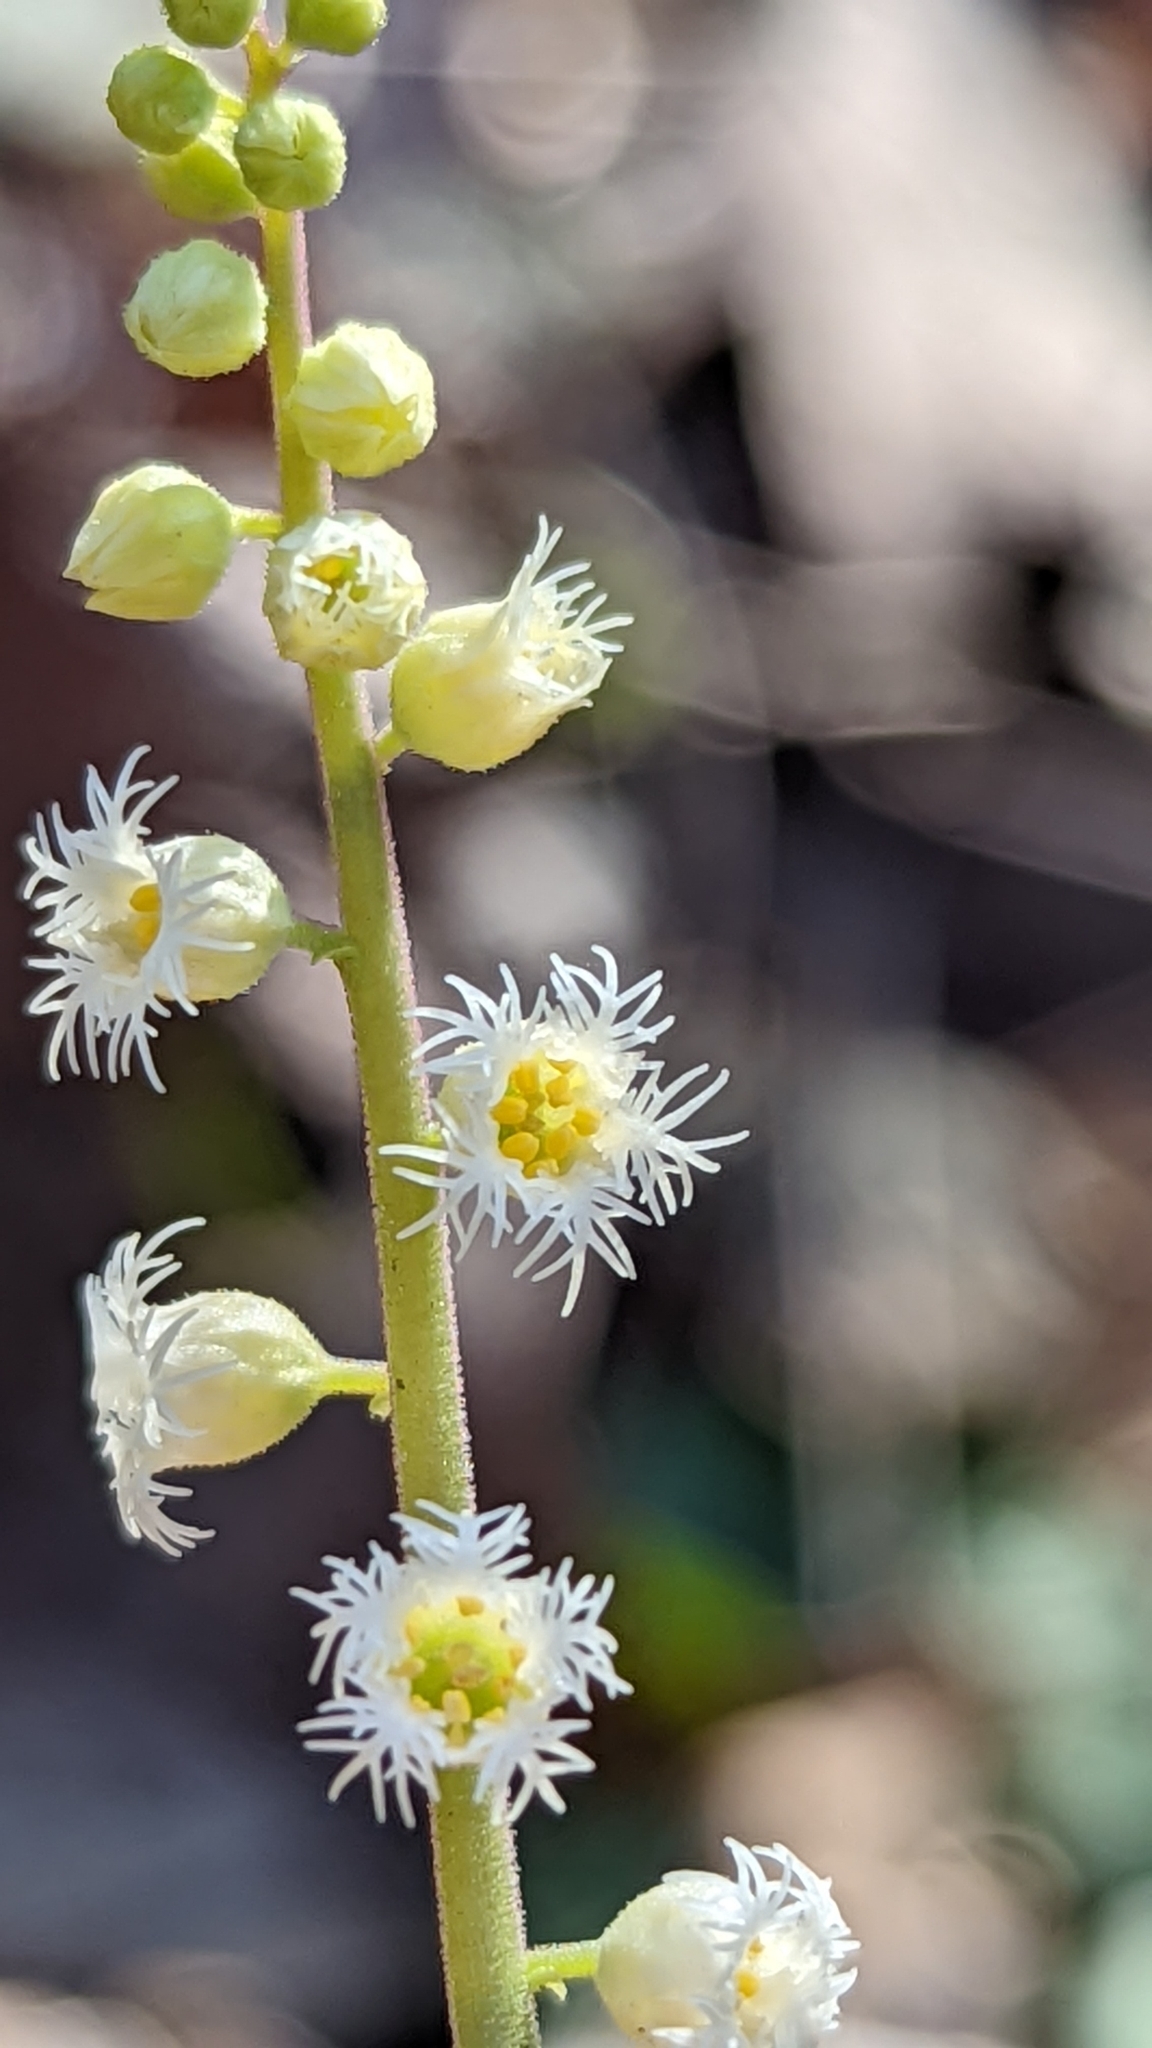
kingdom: Plantae
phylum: Tracheophyta
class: Magnoliopsida
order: Saxifragales
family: Saxifragaceae
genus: Mitella
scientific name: Mitella diphylla
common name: Coolwort
